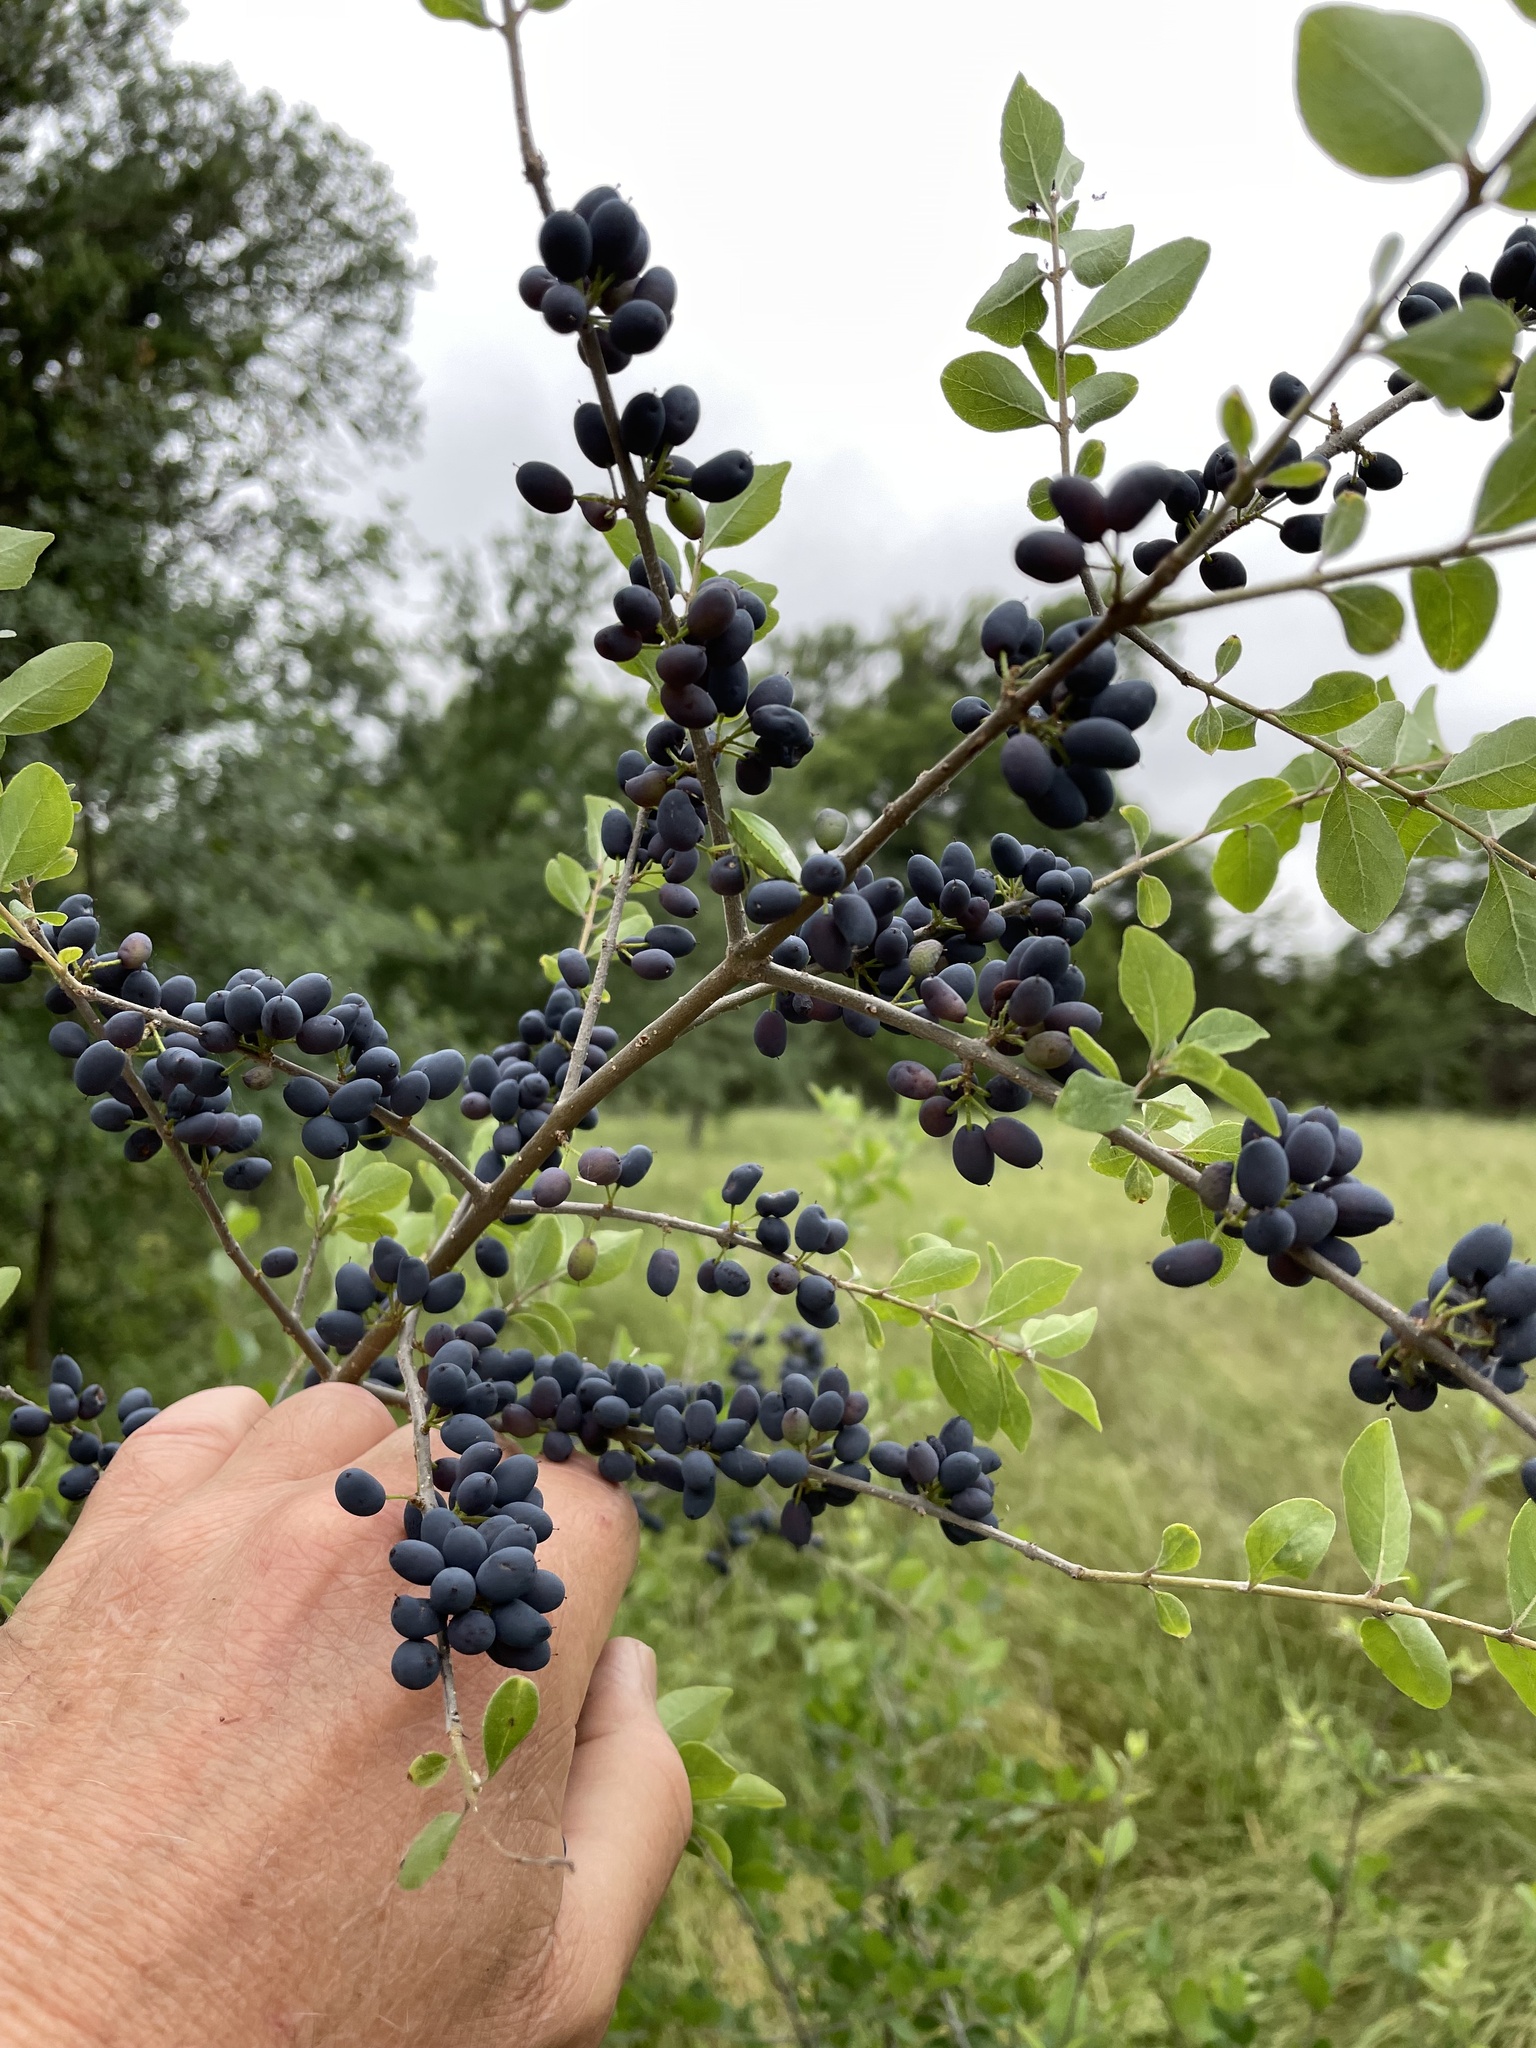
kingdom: Plantae
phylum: Tracheophyta
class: Magnoliopsida
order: Lamiales
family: Oleaceae
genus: Forestiera
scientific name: Forestiera pubescens
